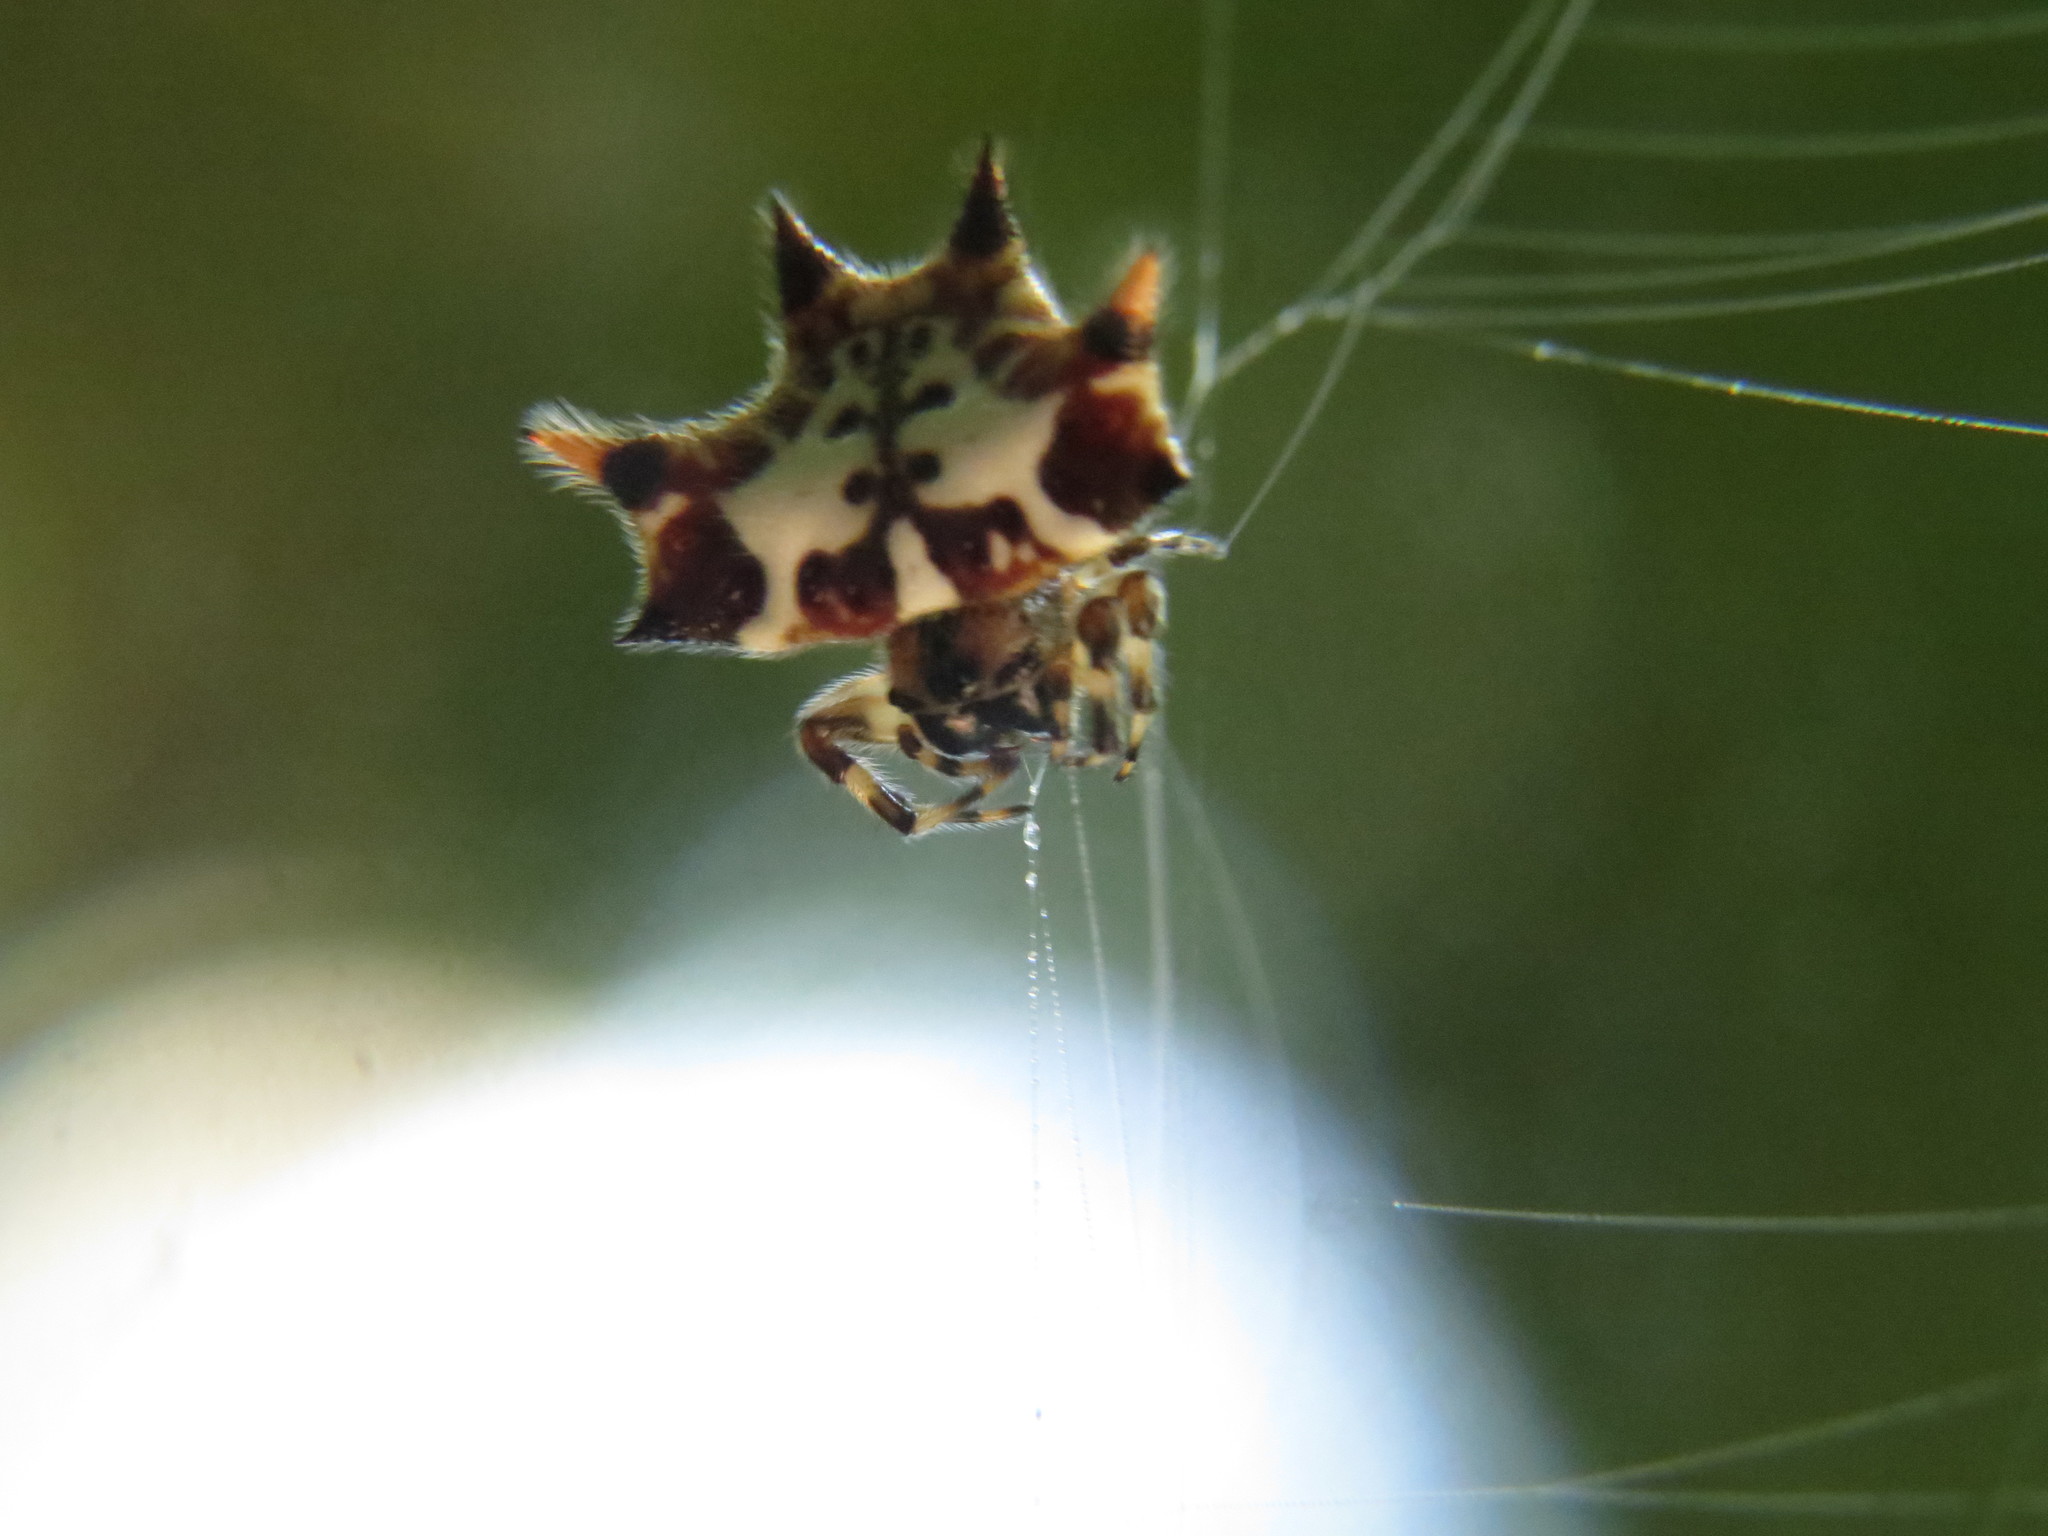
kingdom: Animalia
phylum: Arthropoda
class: Arachnida
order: Araneae
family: Araneidae
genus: Gasteracantha
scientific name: Gasteracantha kuhli
